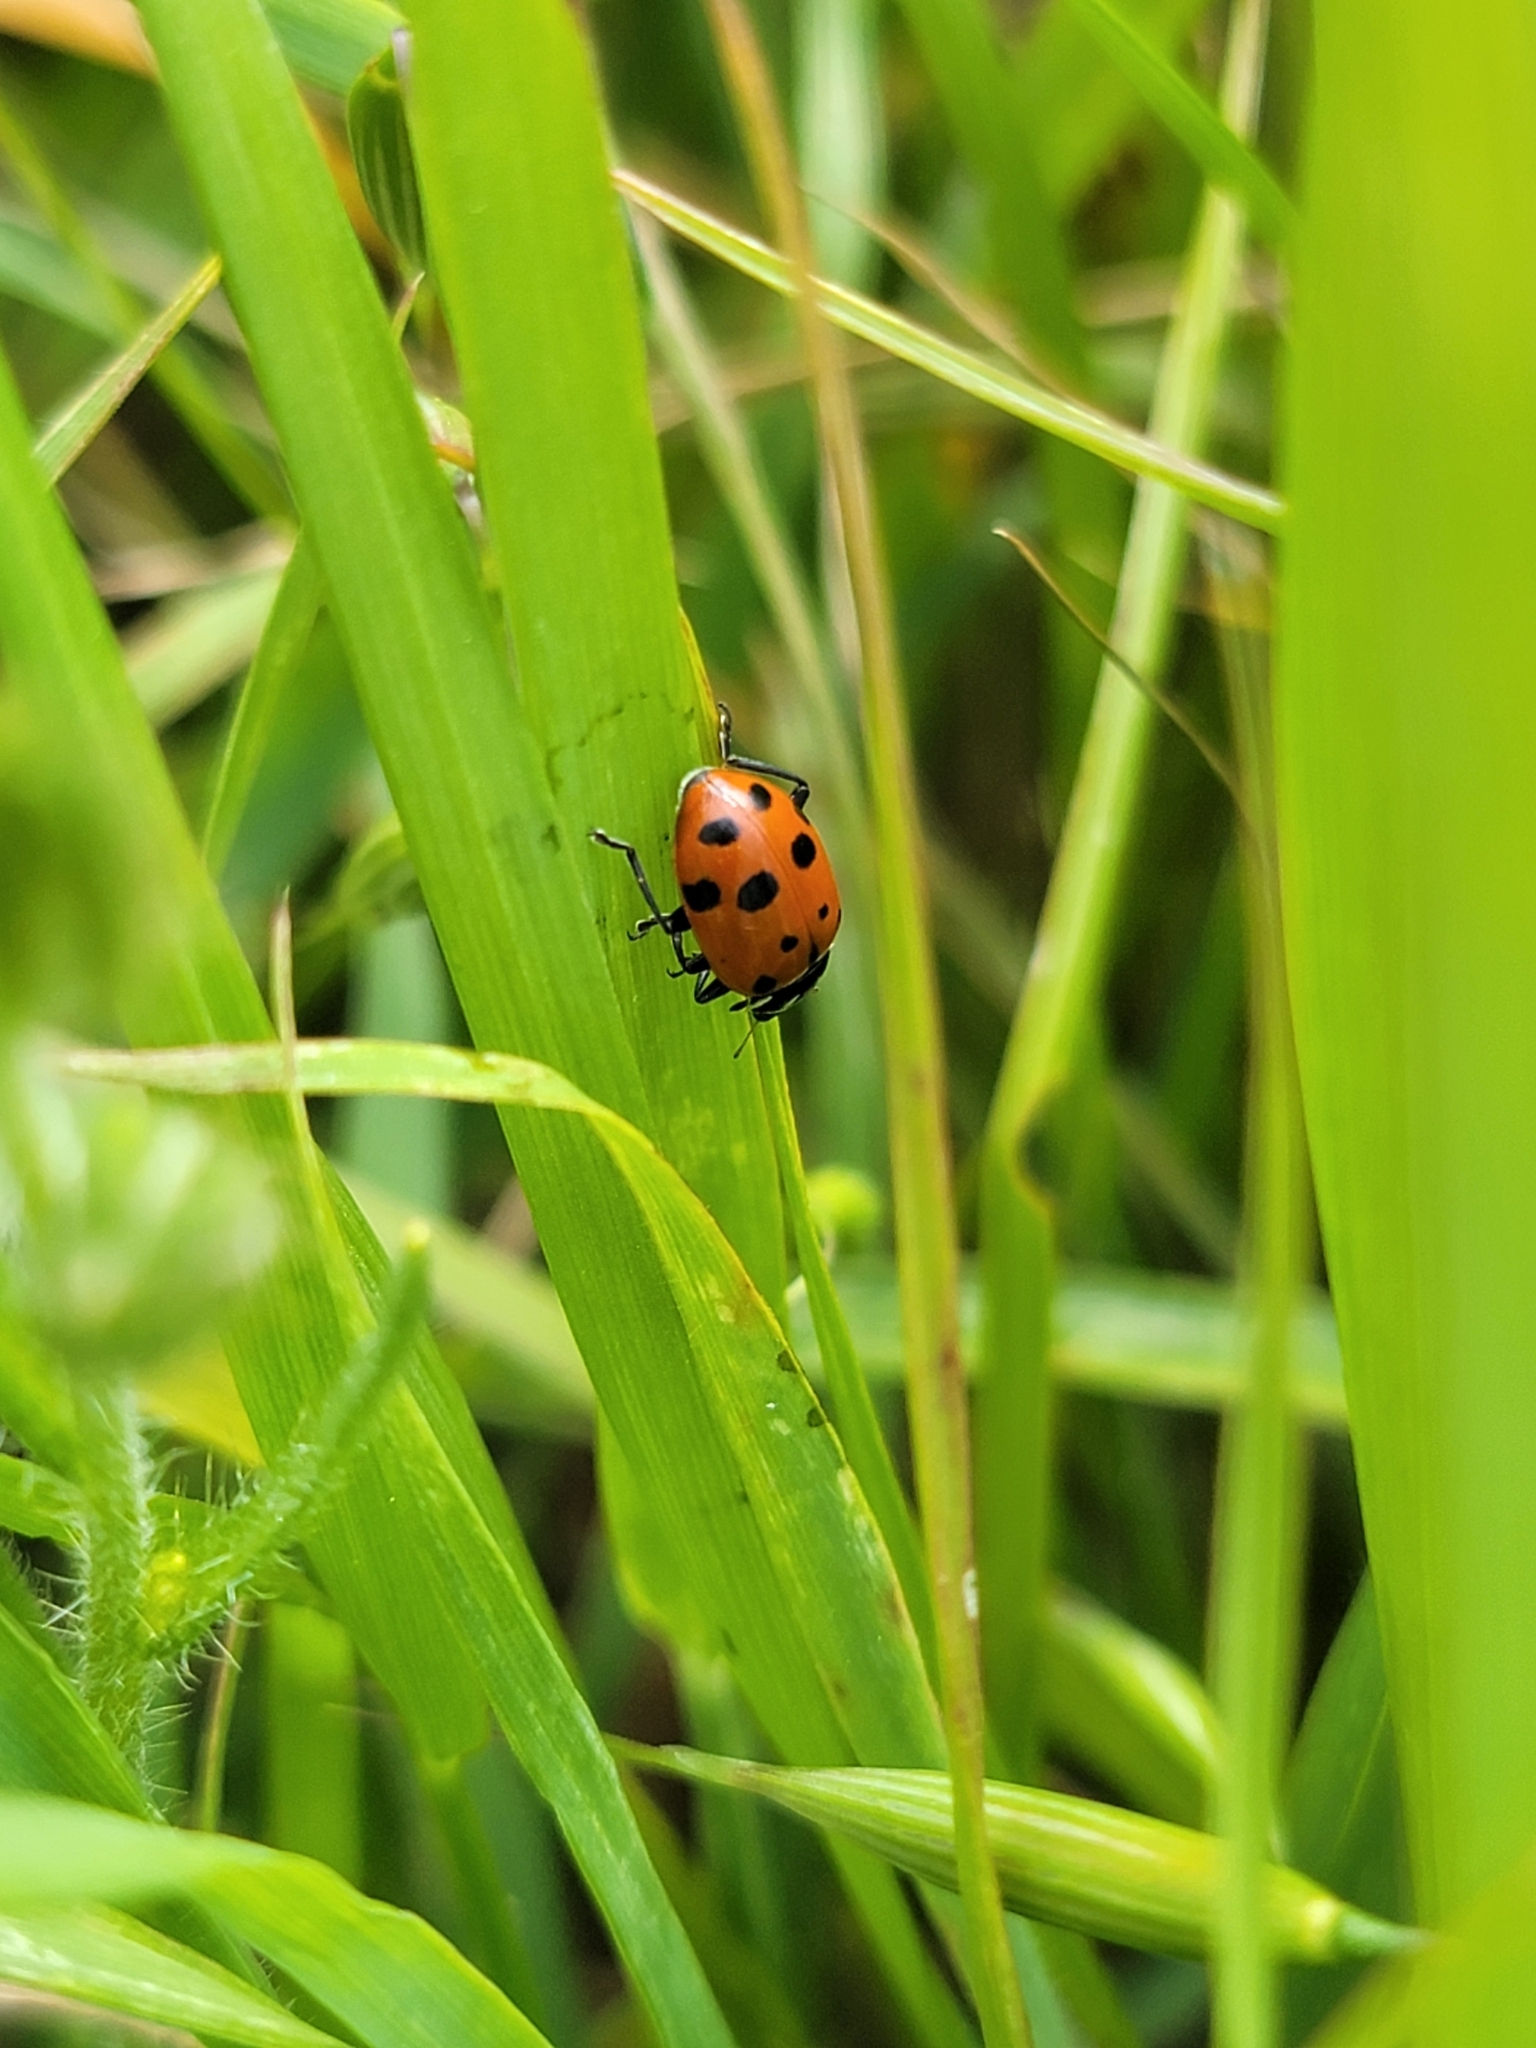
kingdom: Animalia
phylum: Arthropoda
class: Insecta
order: Coleoptera
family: Coccinellidae
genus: Hippodamia
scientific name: Hippodamia convergens
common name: Convergent lady beetle
